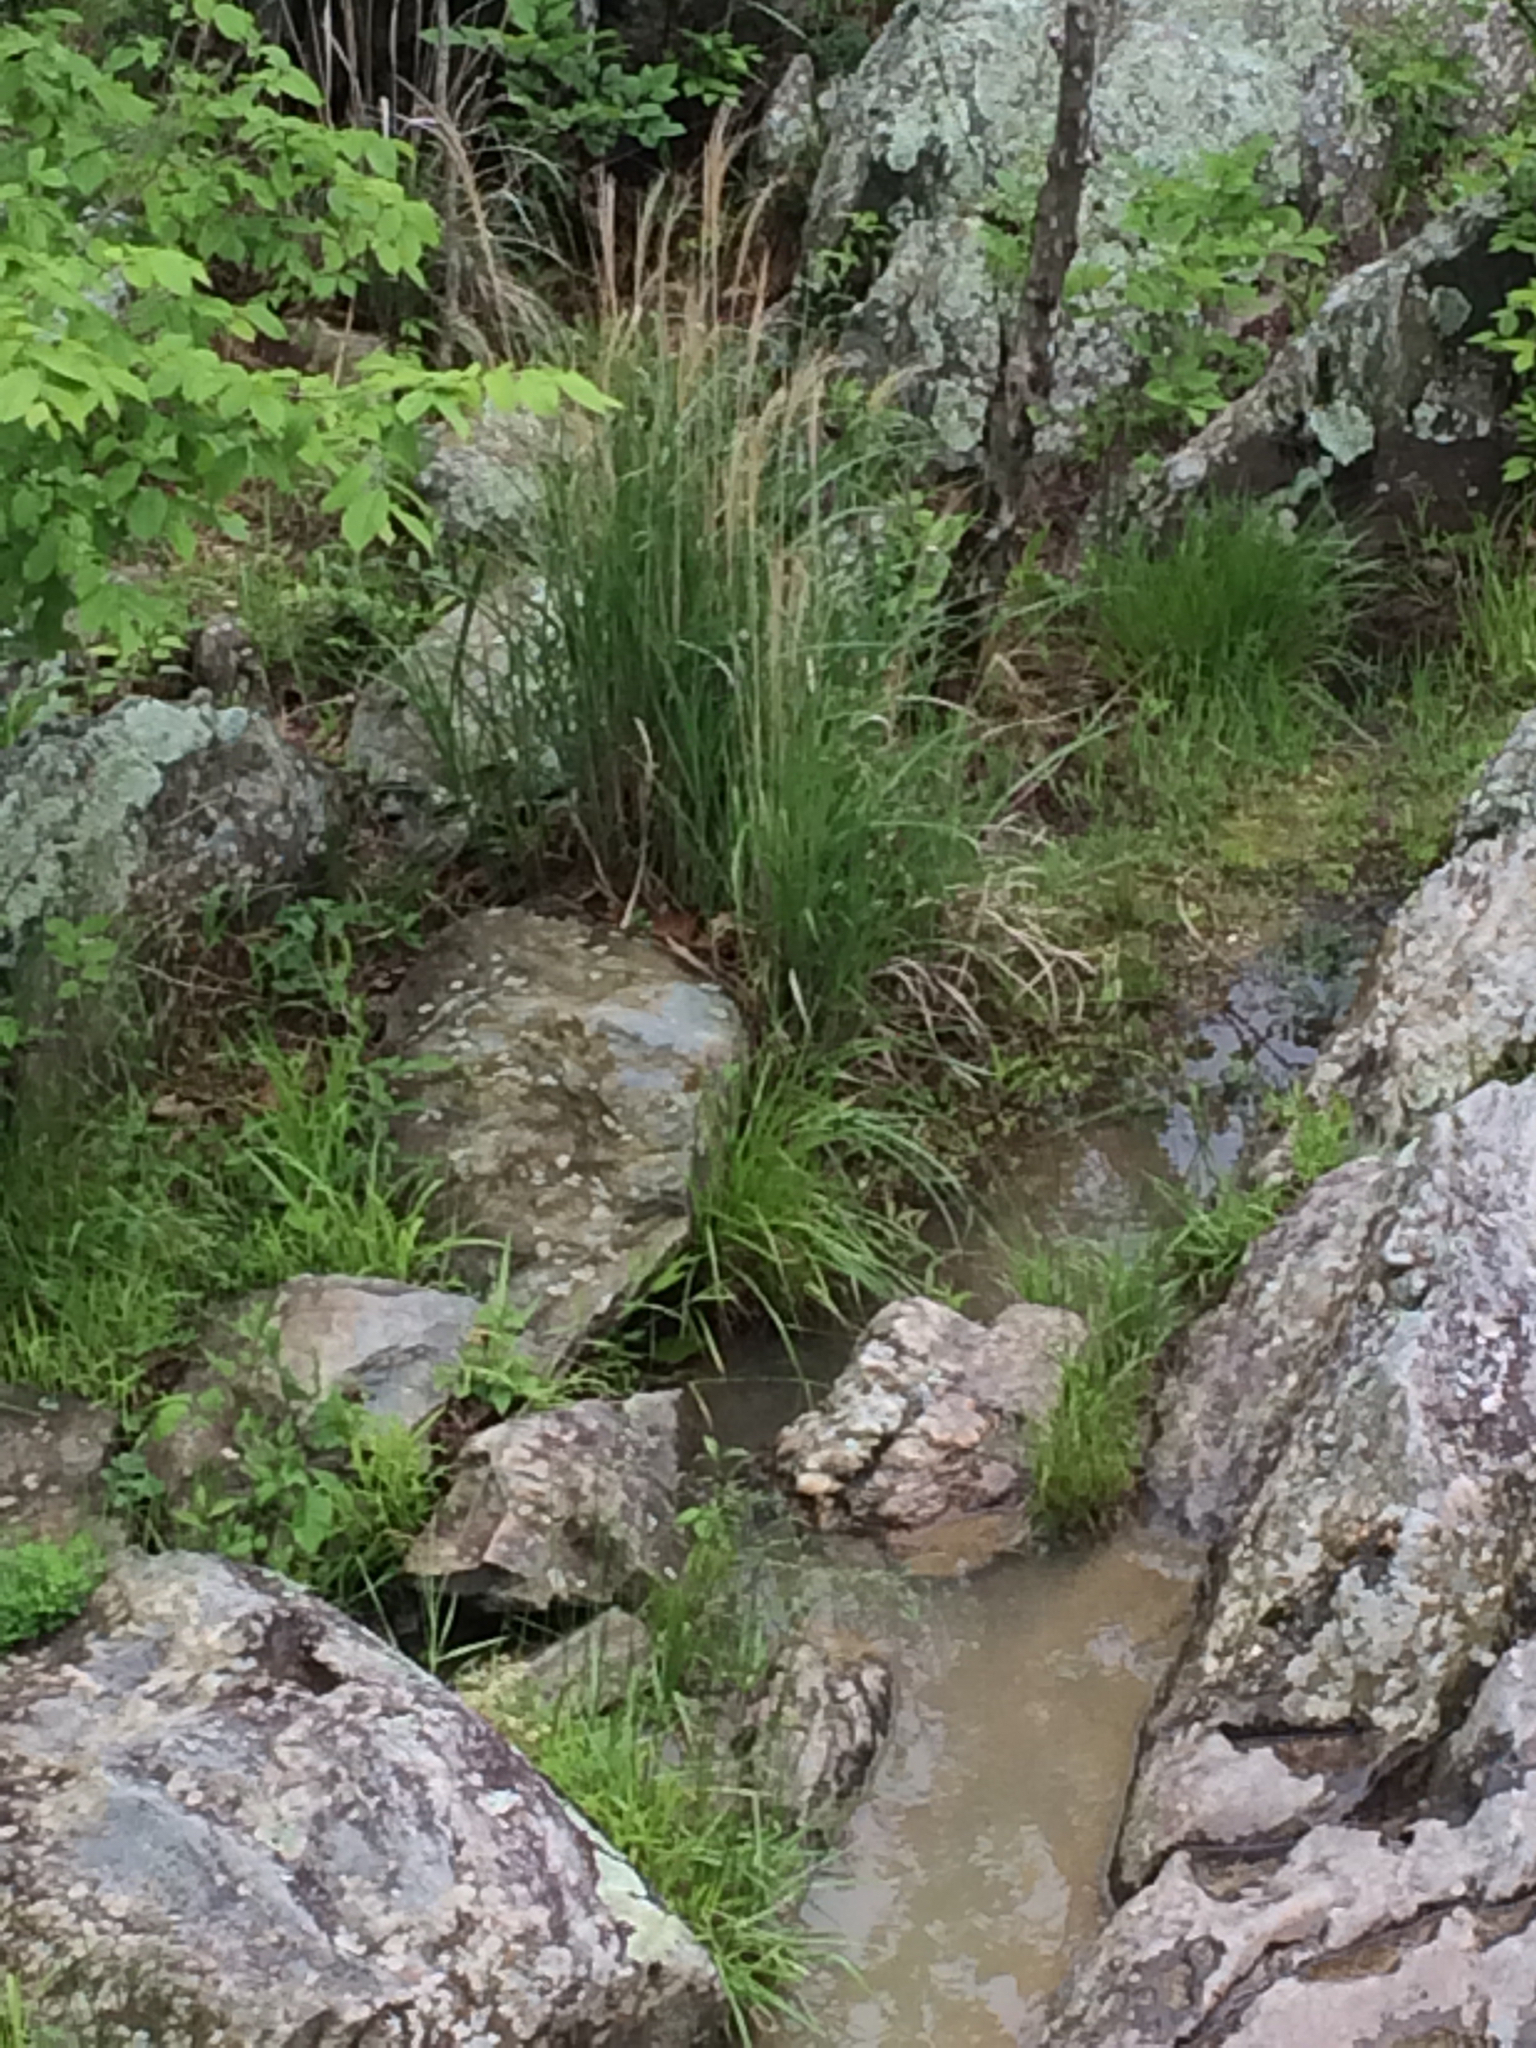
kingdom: Plantae
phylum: Tracheophyta
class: Liliopsida
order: Poales
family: Poaceae
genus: Miscanthus
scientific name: Miscanthus sinensis
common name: Chinese silvergrass
